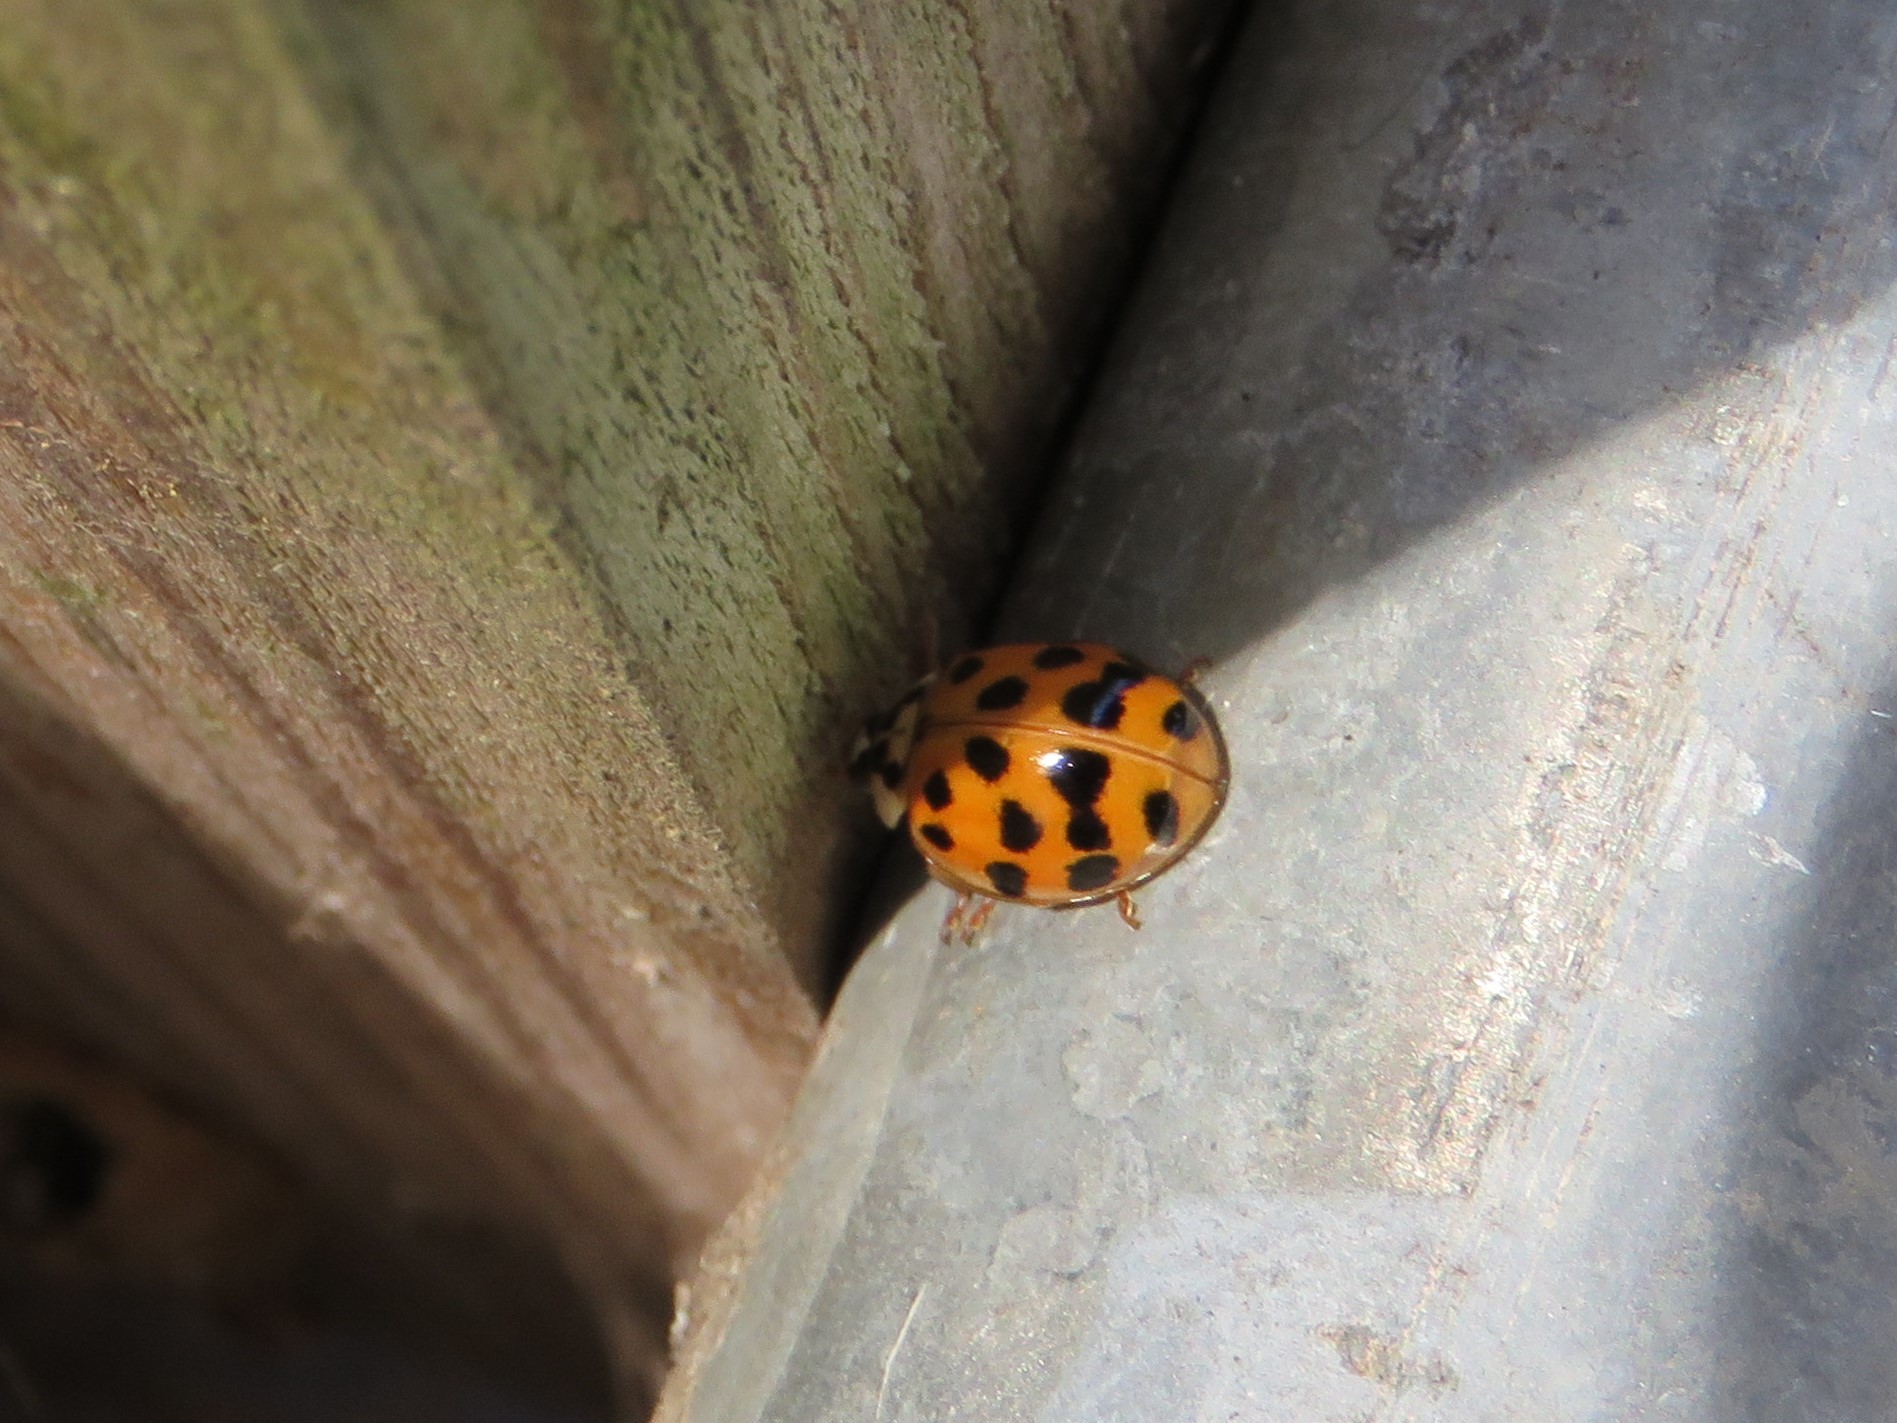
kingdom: Animalia
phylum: Arthropoda
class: Insecta
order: Coleoptera
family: Coccinellidae
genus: Harmonia
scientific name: Harmonia axyridis
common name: Harlequin ladybird
